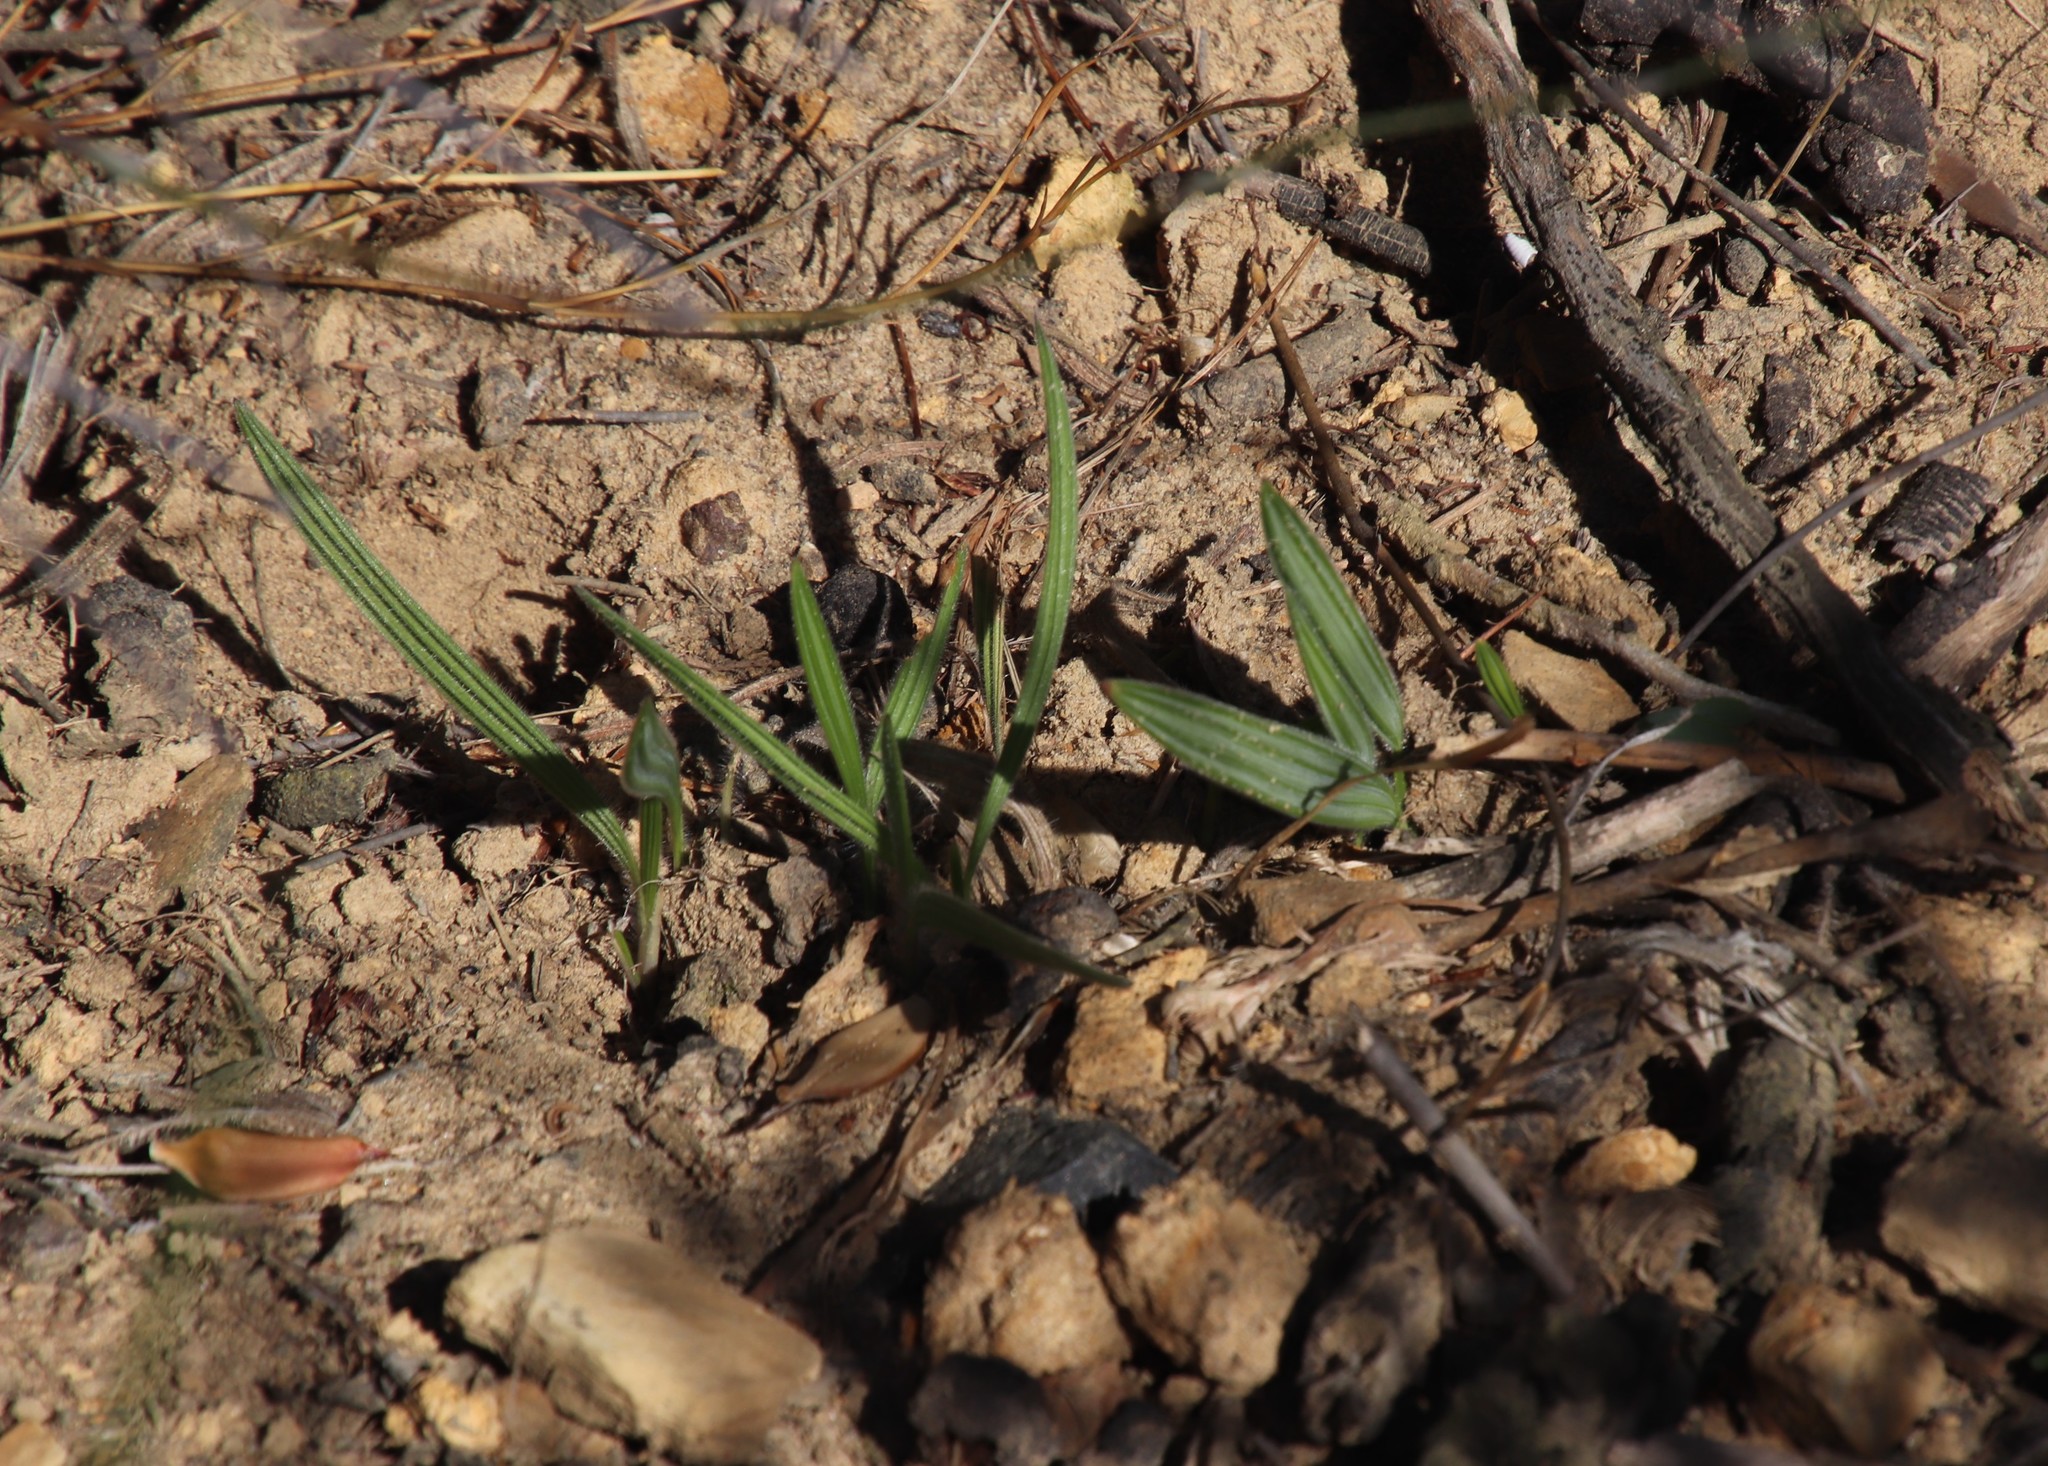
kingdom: Plantae
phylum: Tracheophyta
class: Liliopsida
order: Asparagales
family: Iridaceae
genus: Babiana
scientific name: Babiana villosula
